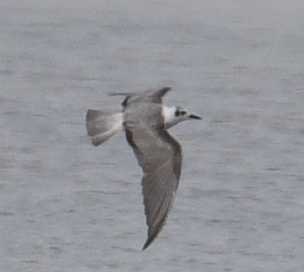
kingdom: Animalia
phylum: Chordata
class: Aves
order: Charadriiformes
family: Laridae
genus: Chlidonias
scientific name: Chlidonias leucopterus
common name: White-winged tern
